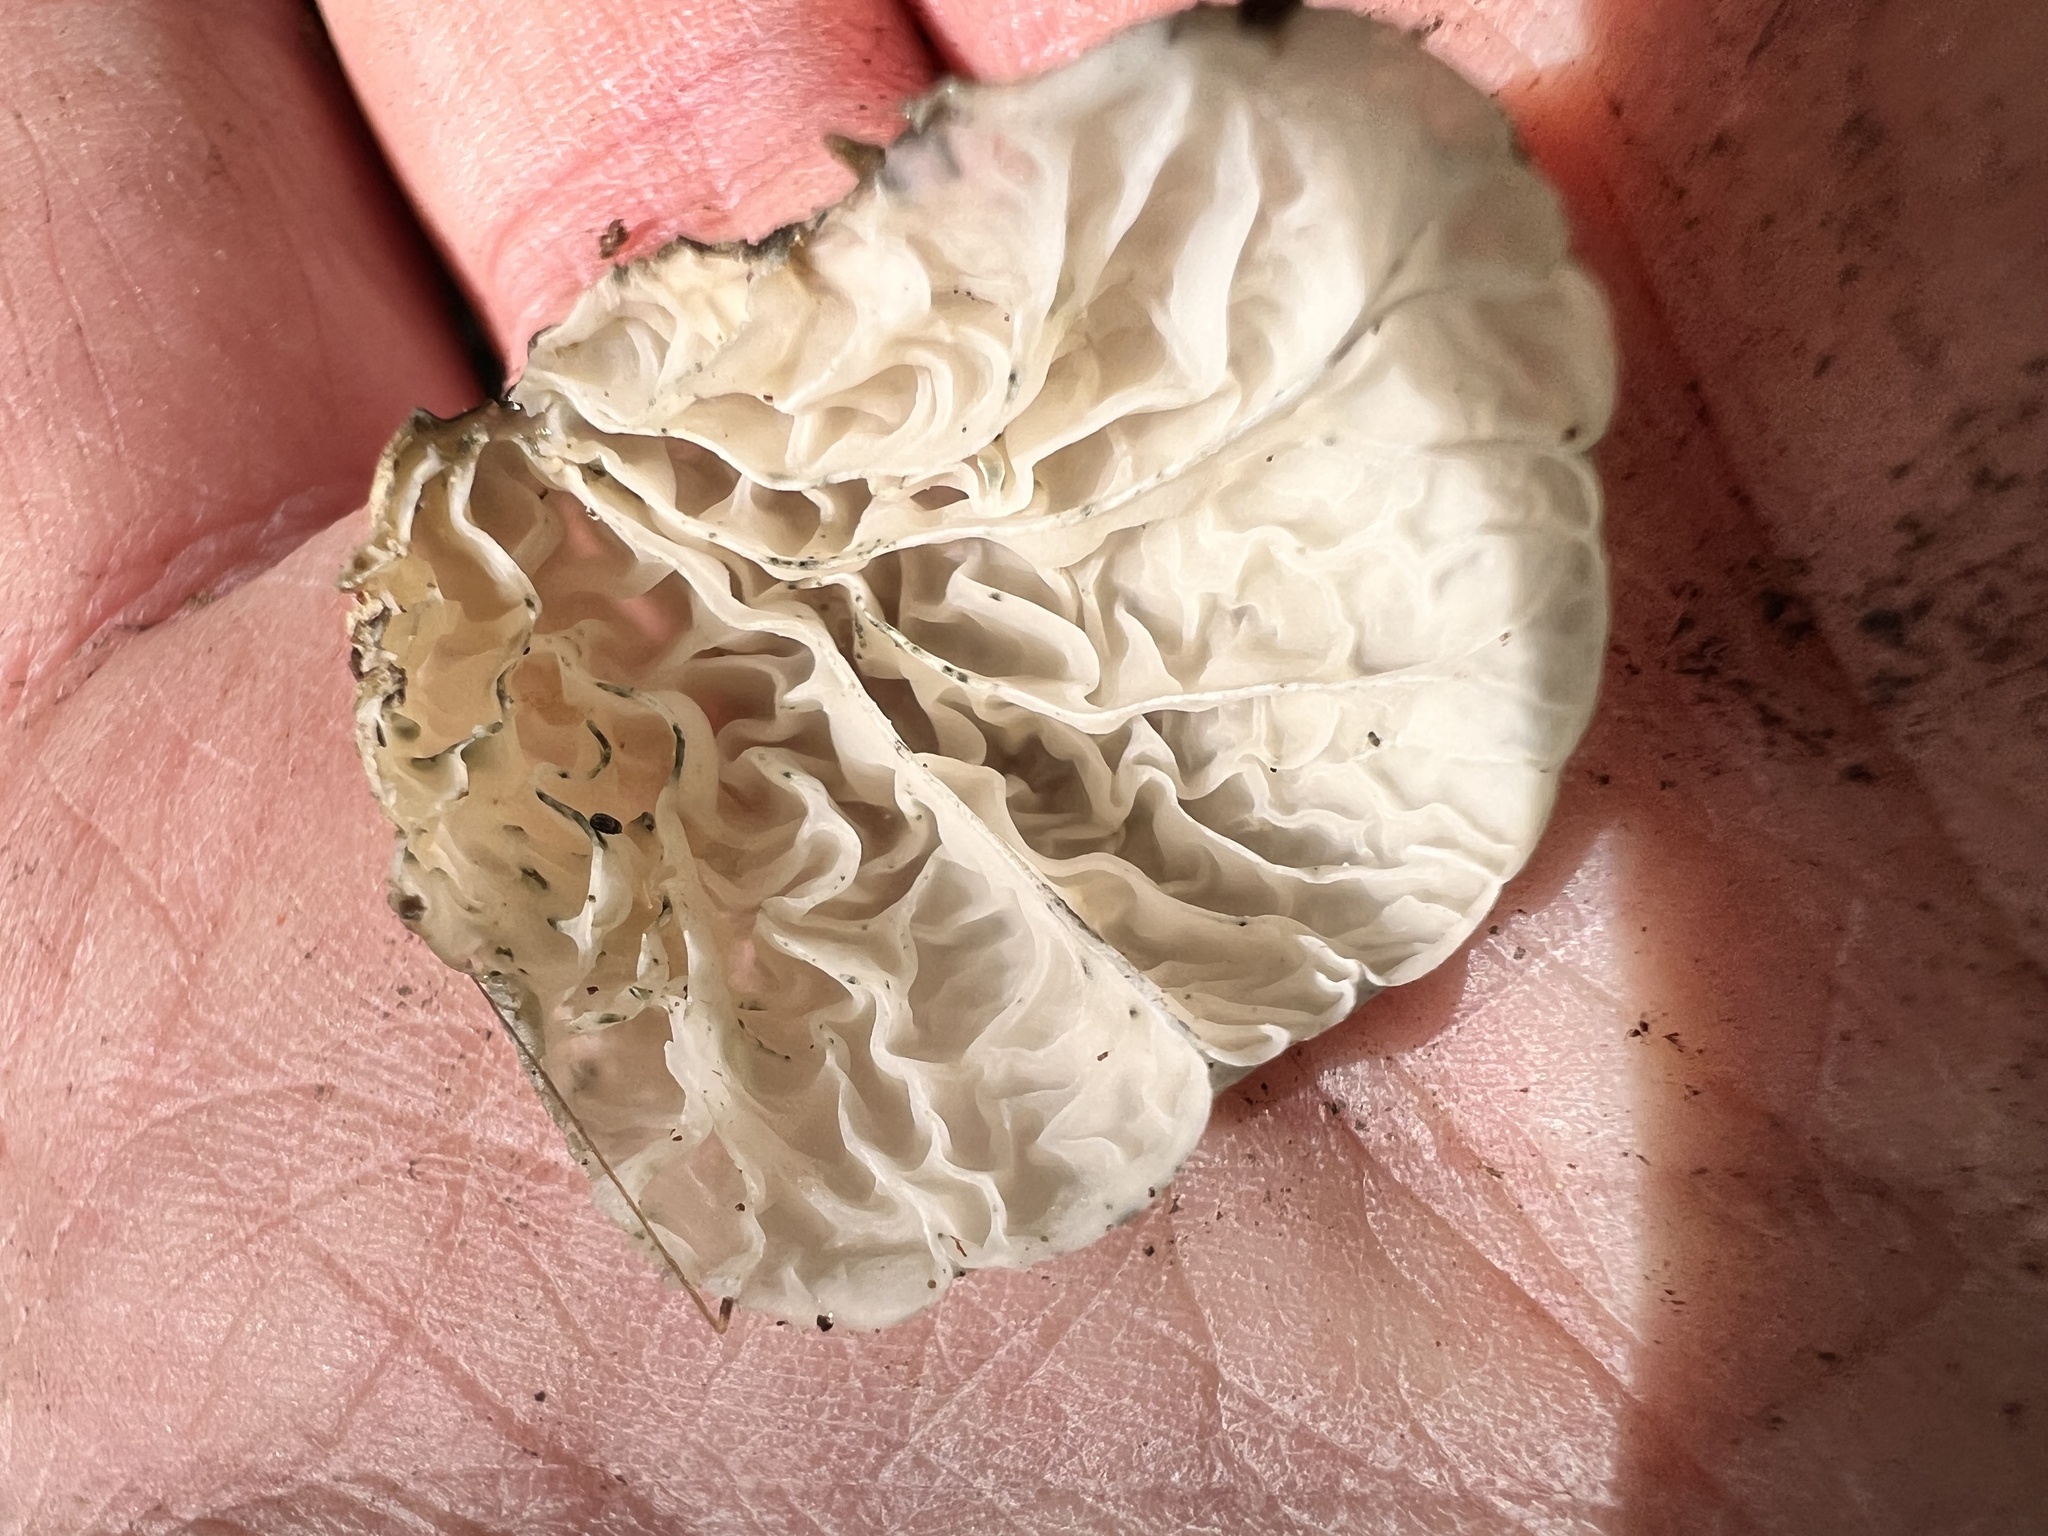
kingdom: Fungi
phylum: Basidiomycota
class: Agaricomycetes
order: Agaricales
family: Marasmiaceae
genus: Campanella
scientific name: Campanella tristis
